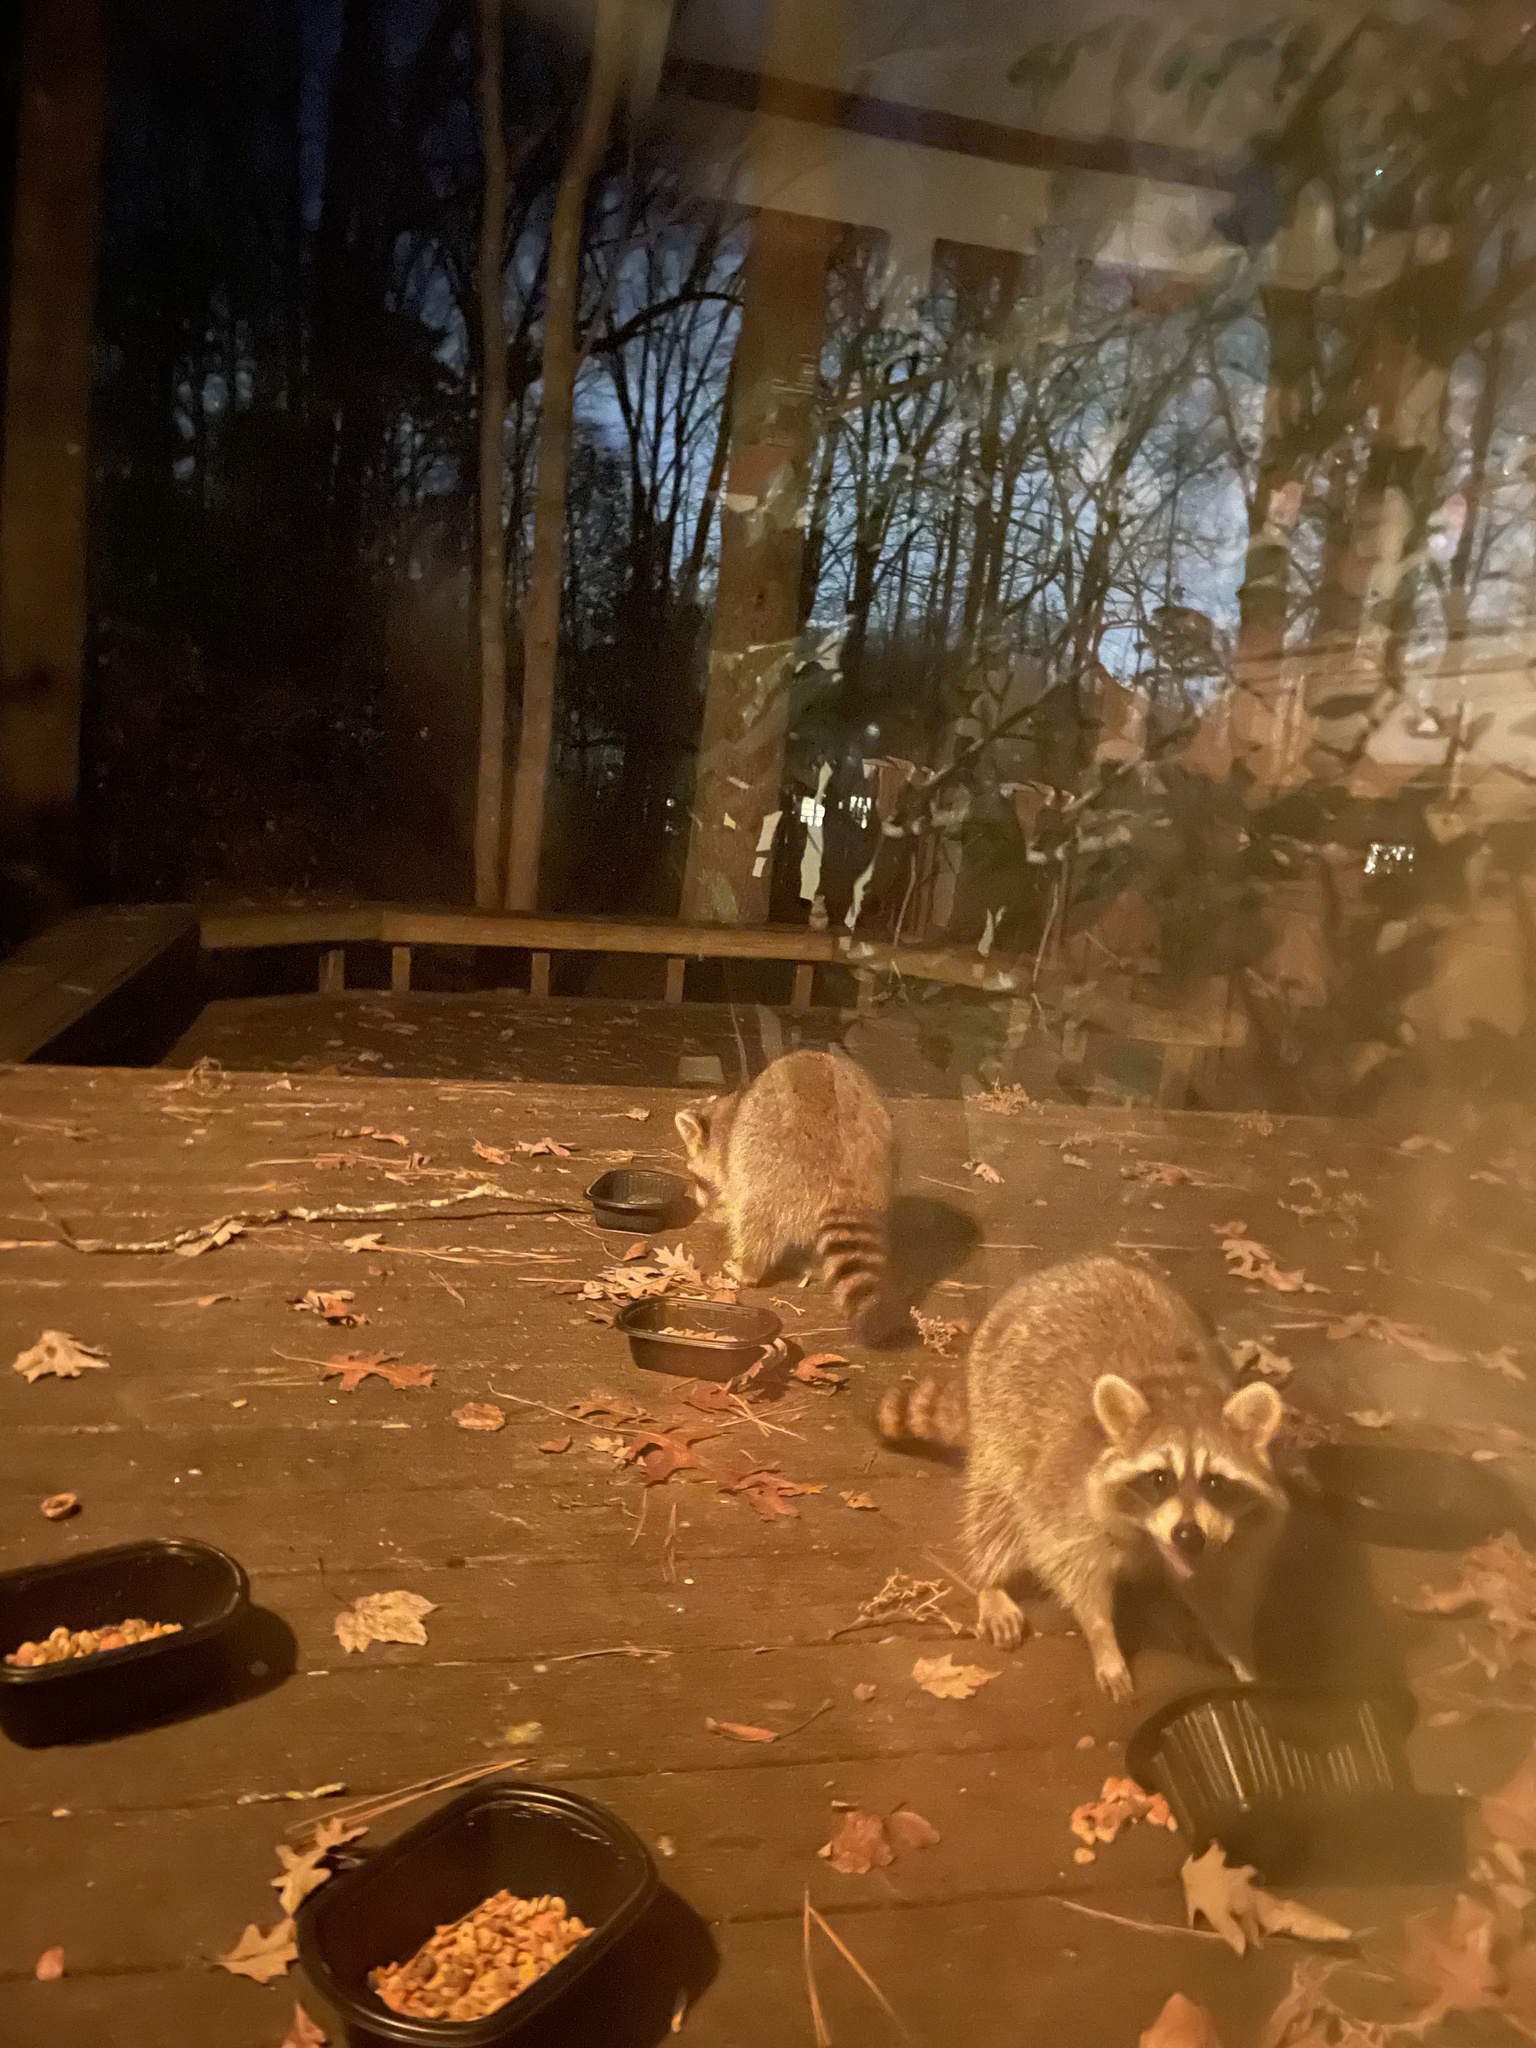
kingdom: Animalia
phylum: Chordata
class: Mammalia
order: Carnivora
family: Procyonidae
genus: Procyon
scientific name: Procyon lotor
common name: Raccoon
